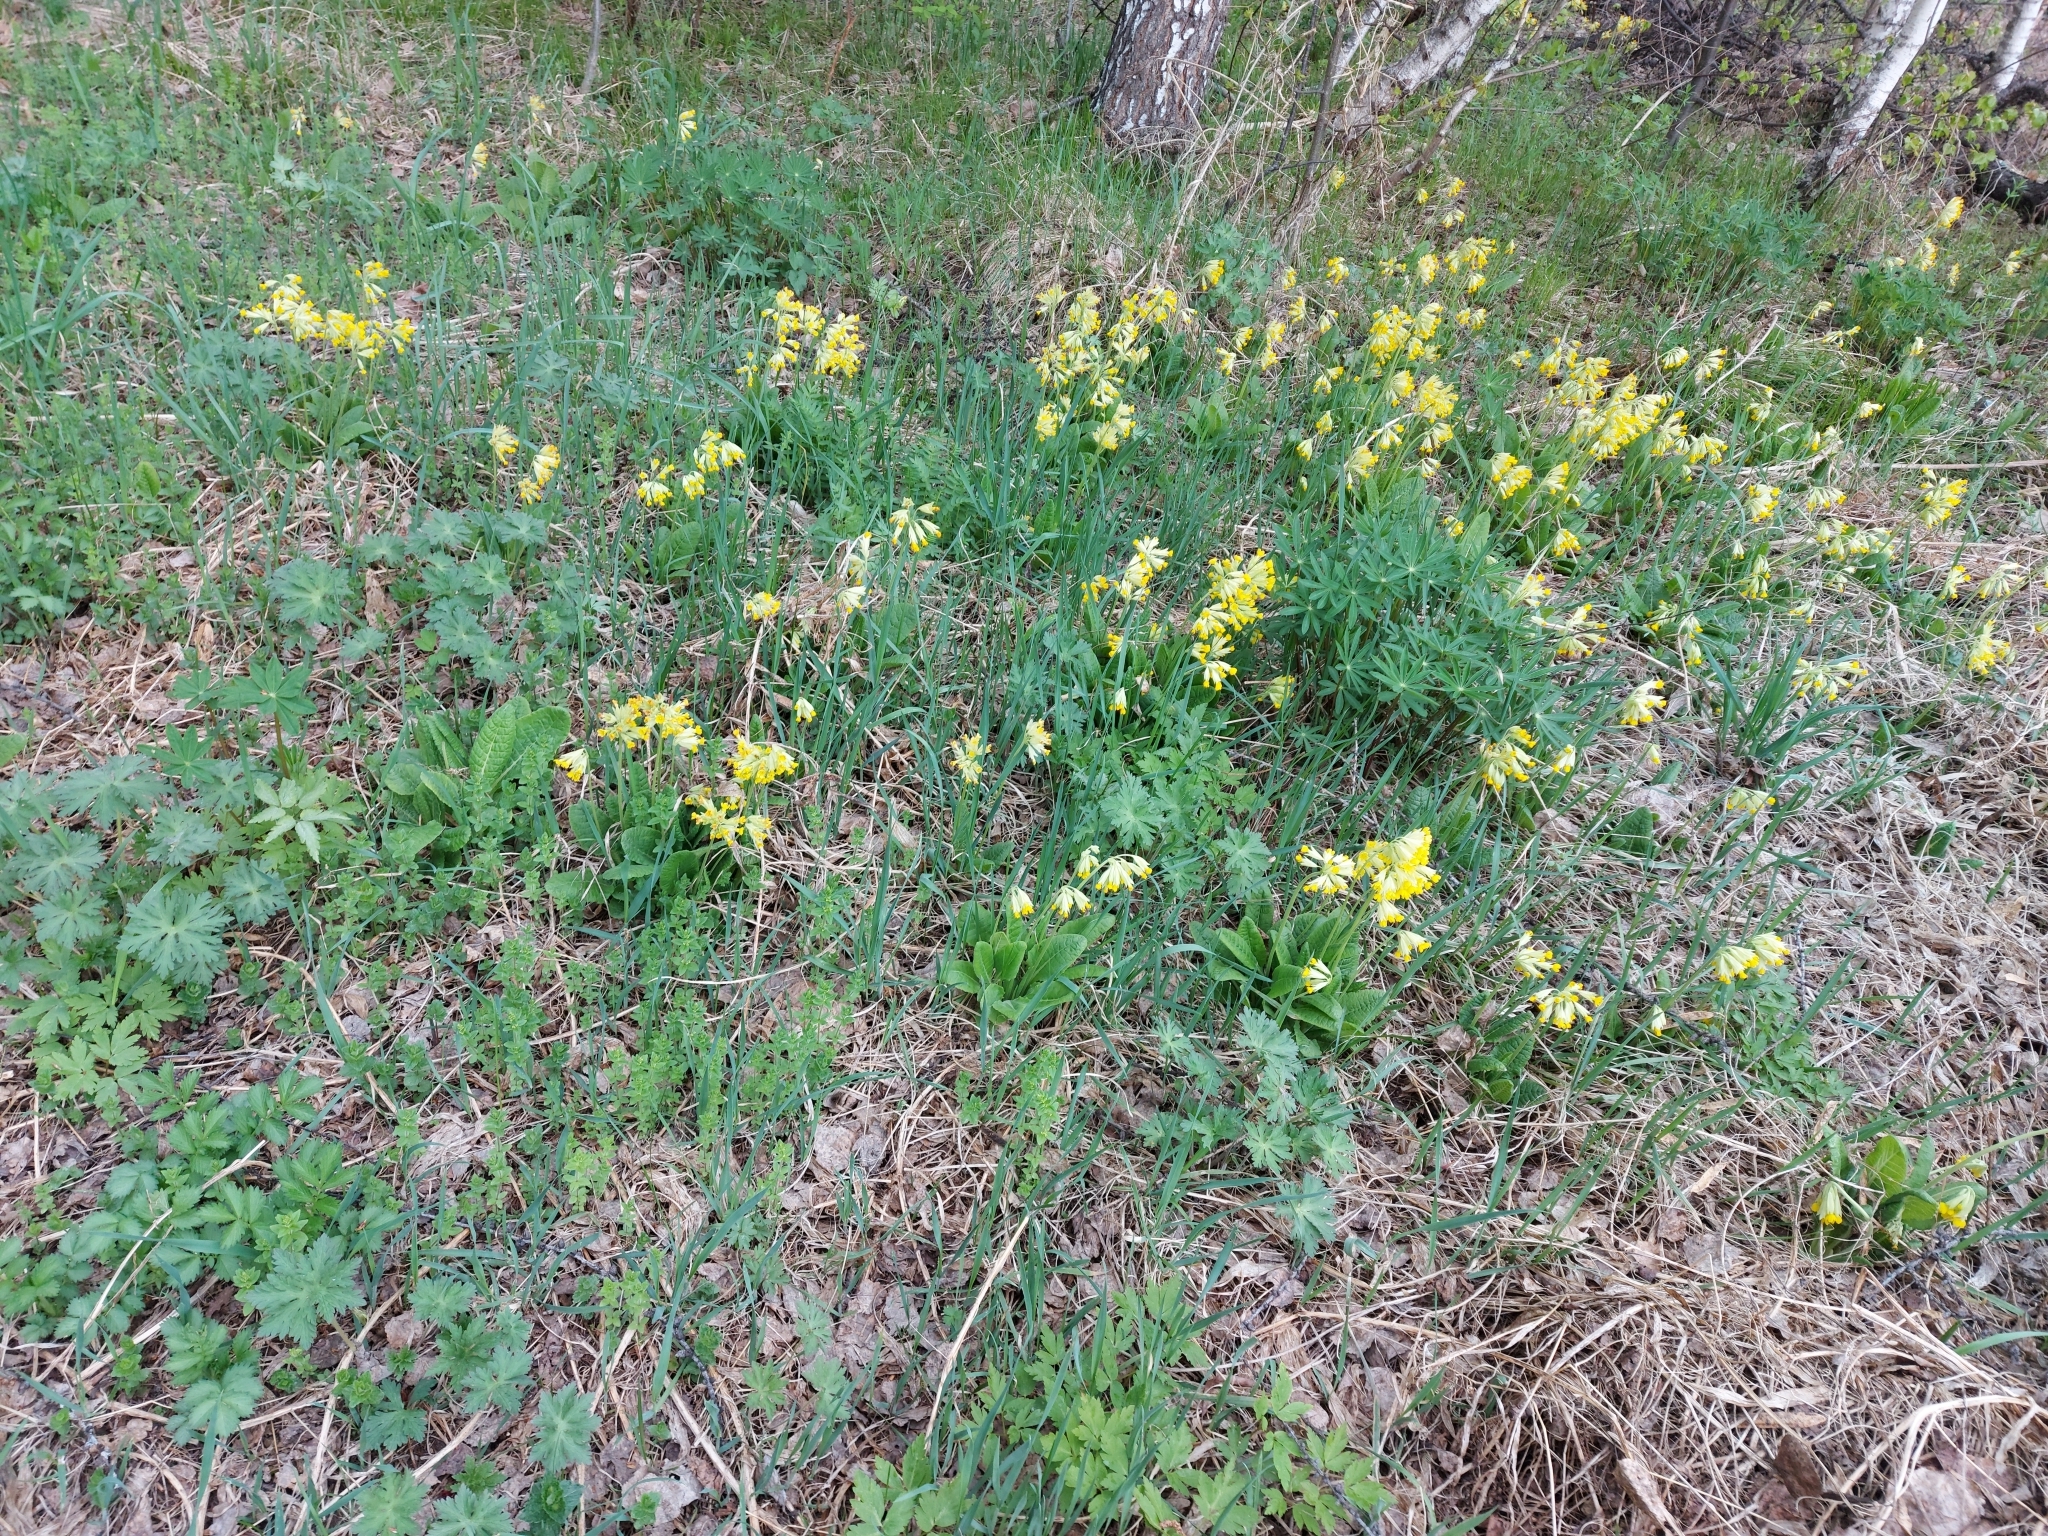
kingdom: Plantae
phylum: Tracheophyta
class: Magnoliopsida
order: Ericales
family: Primulaceae
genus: Primula
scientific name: Primula veris
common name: Cowslip
